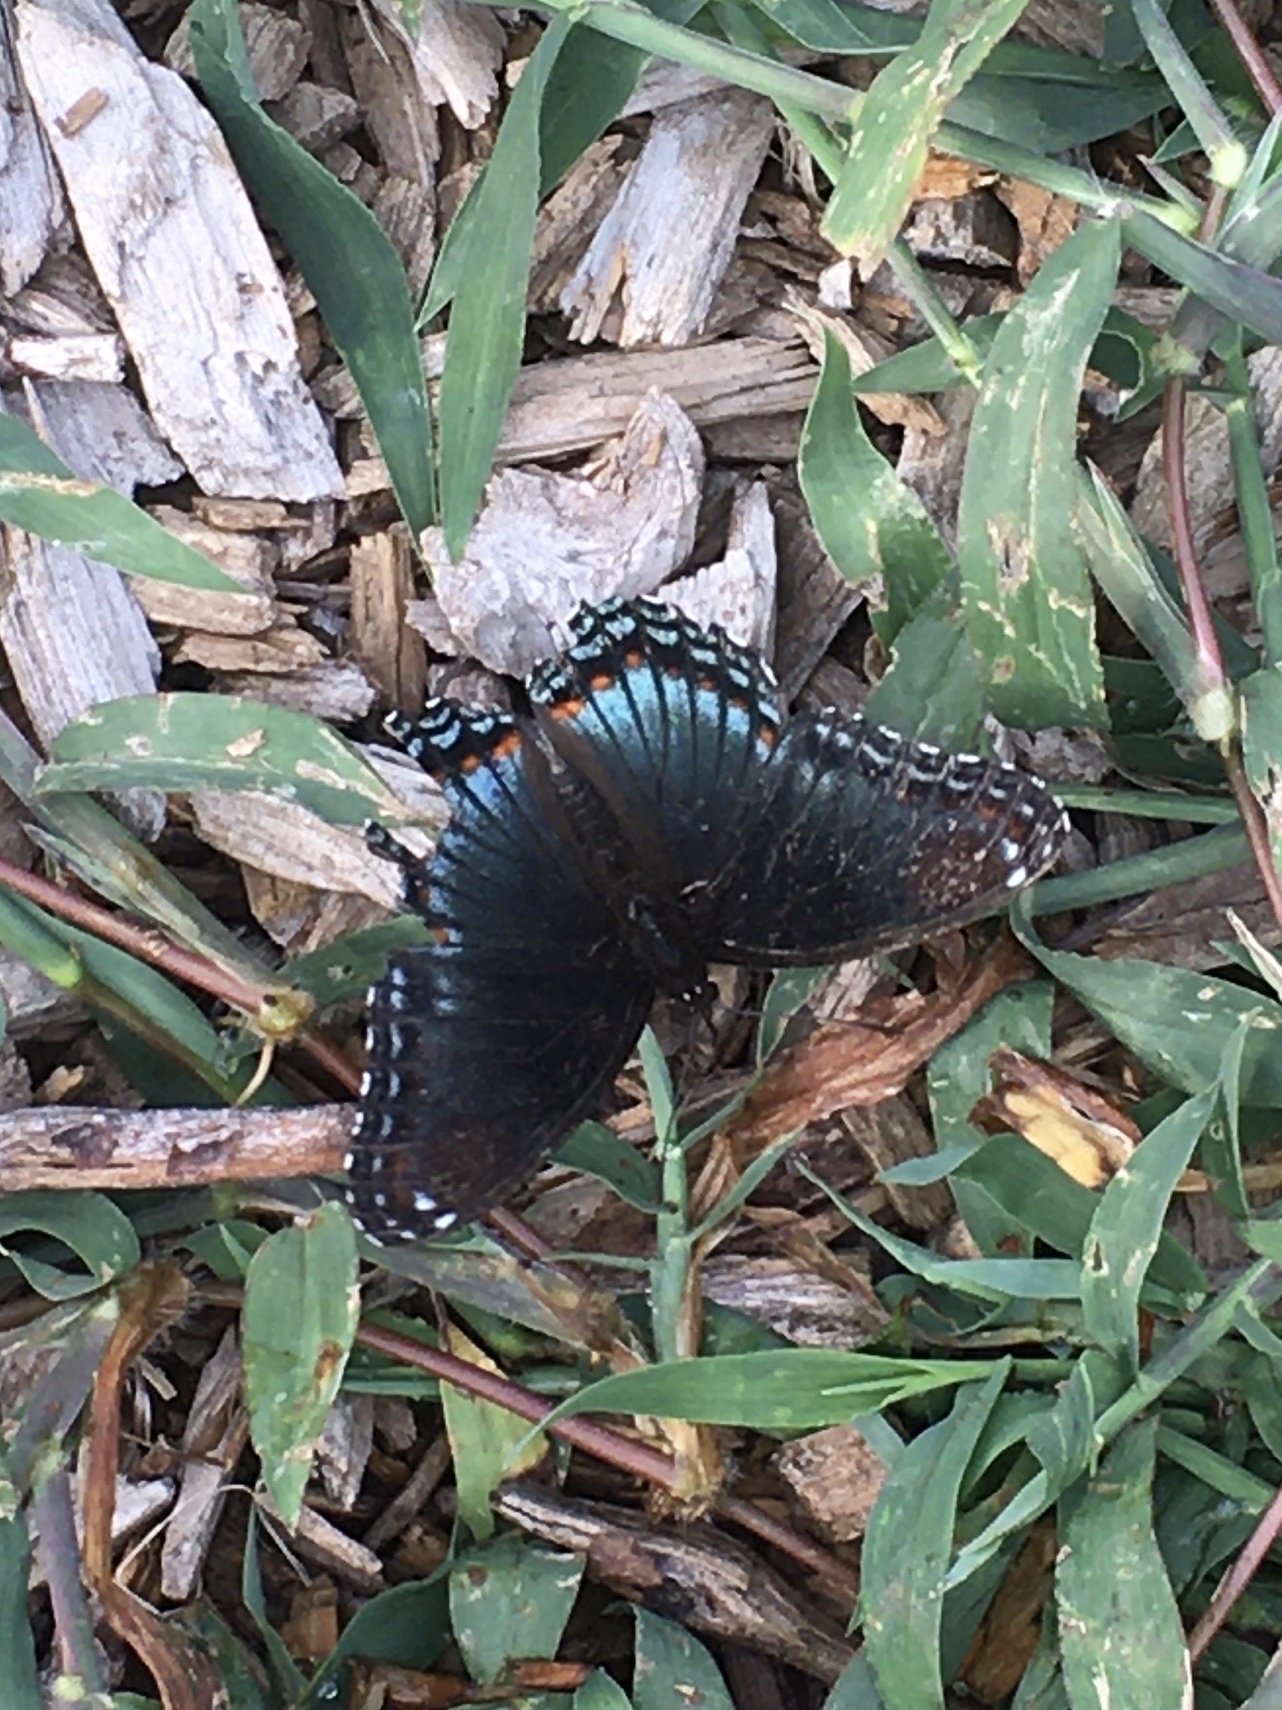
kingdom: Animalia
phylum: Arthropoda
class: Insecta
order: Lepidoptera
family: Nymphalidae
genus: Limenitis
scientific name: Limenitis arthemis
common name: Red-spotted admiral
